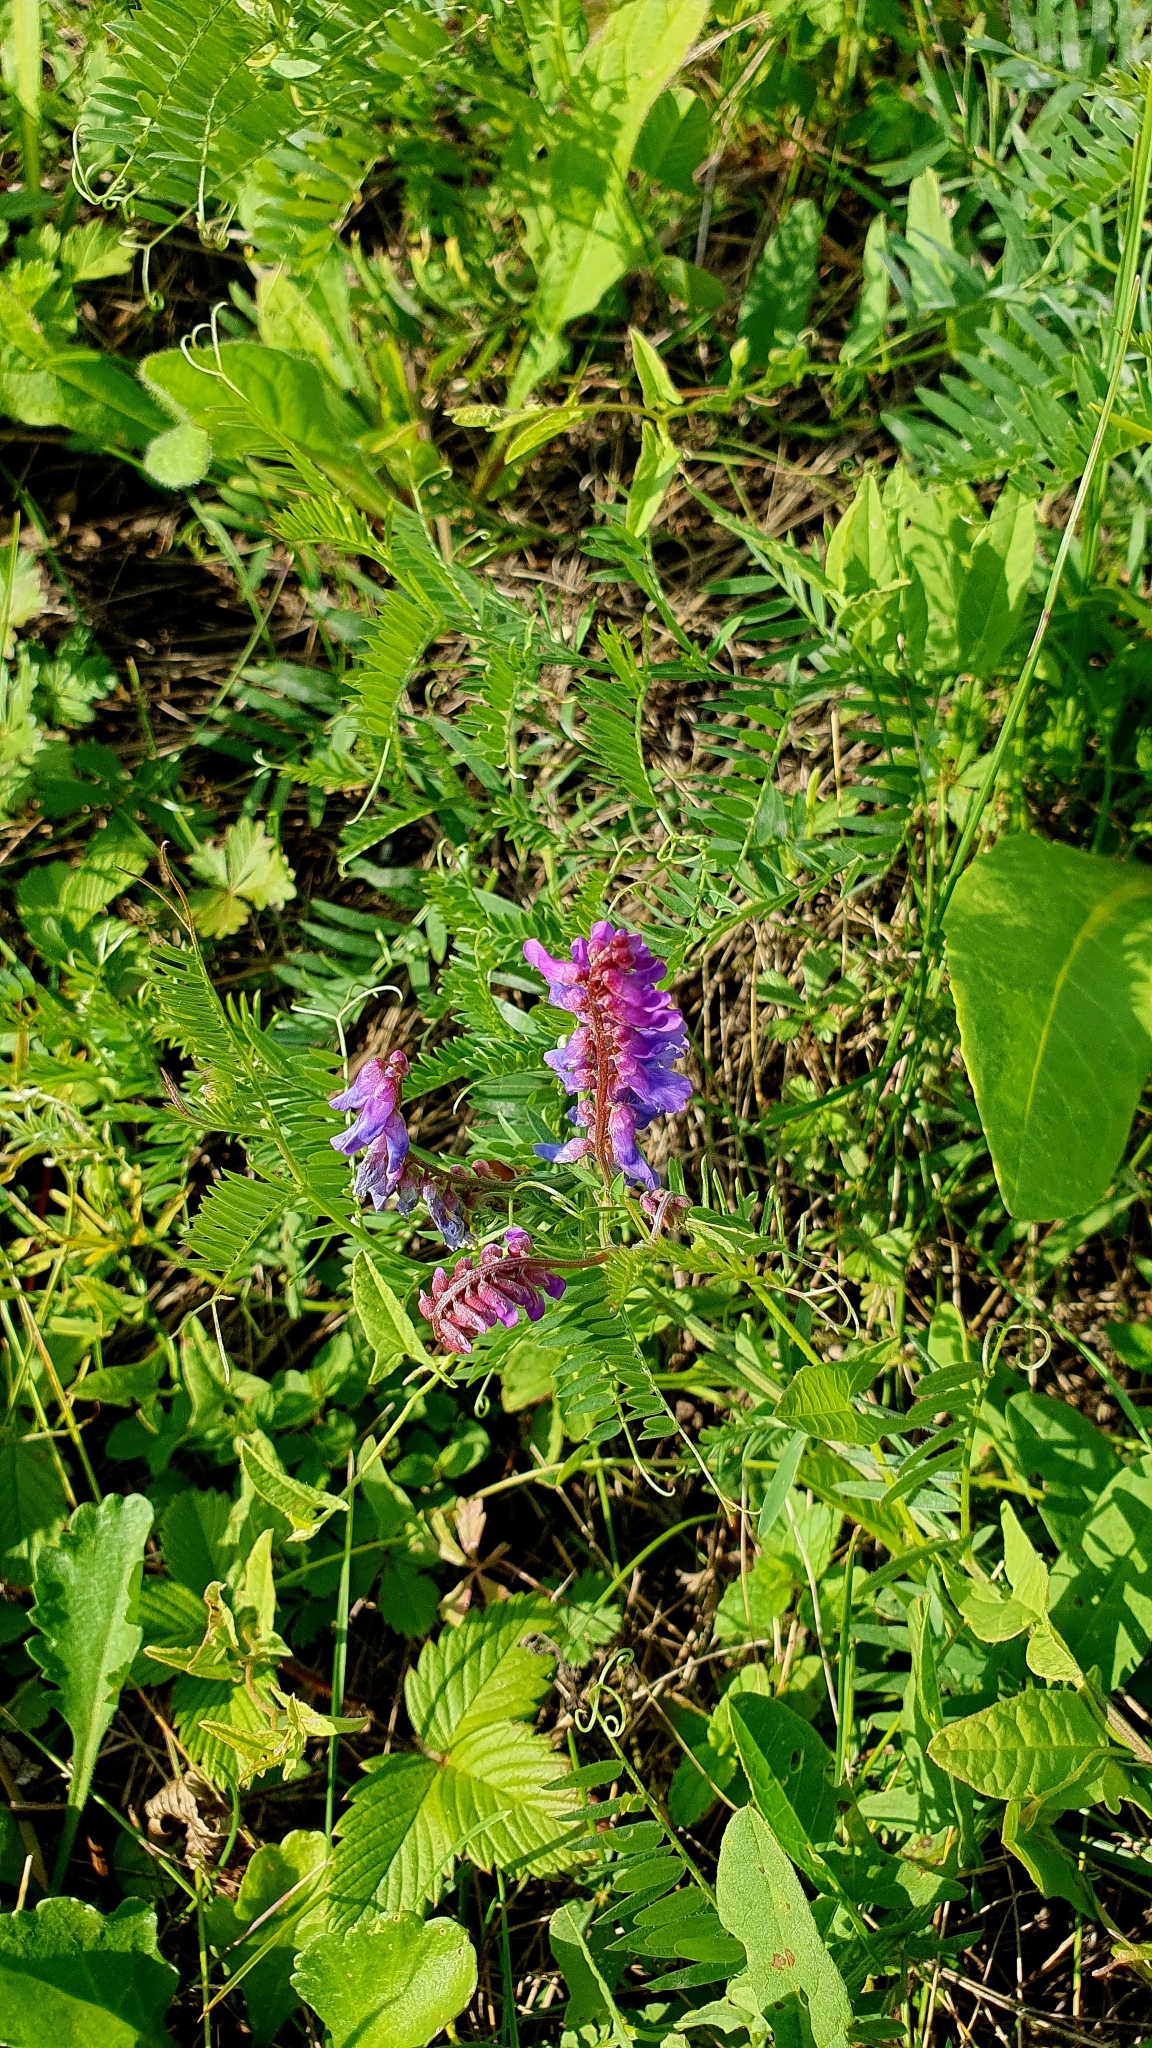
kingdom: Plantae
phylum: Tracheophyta
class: Magnoliopsida
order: Fabales
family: Fabaceae
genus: Vicia
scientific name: Vicia cracca
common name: Bird vetch
